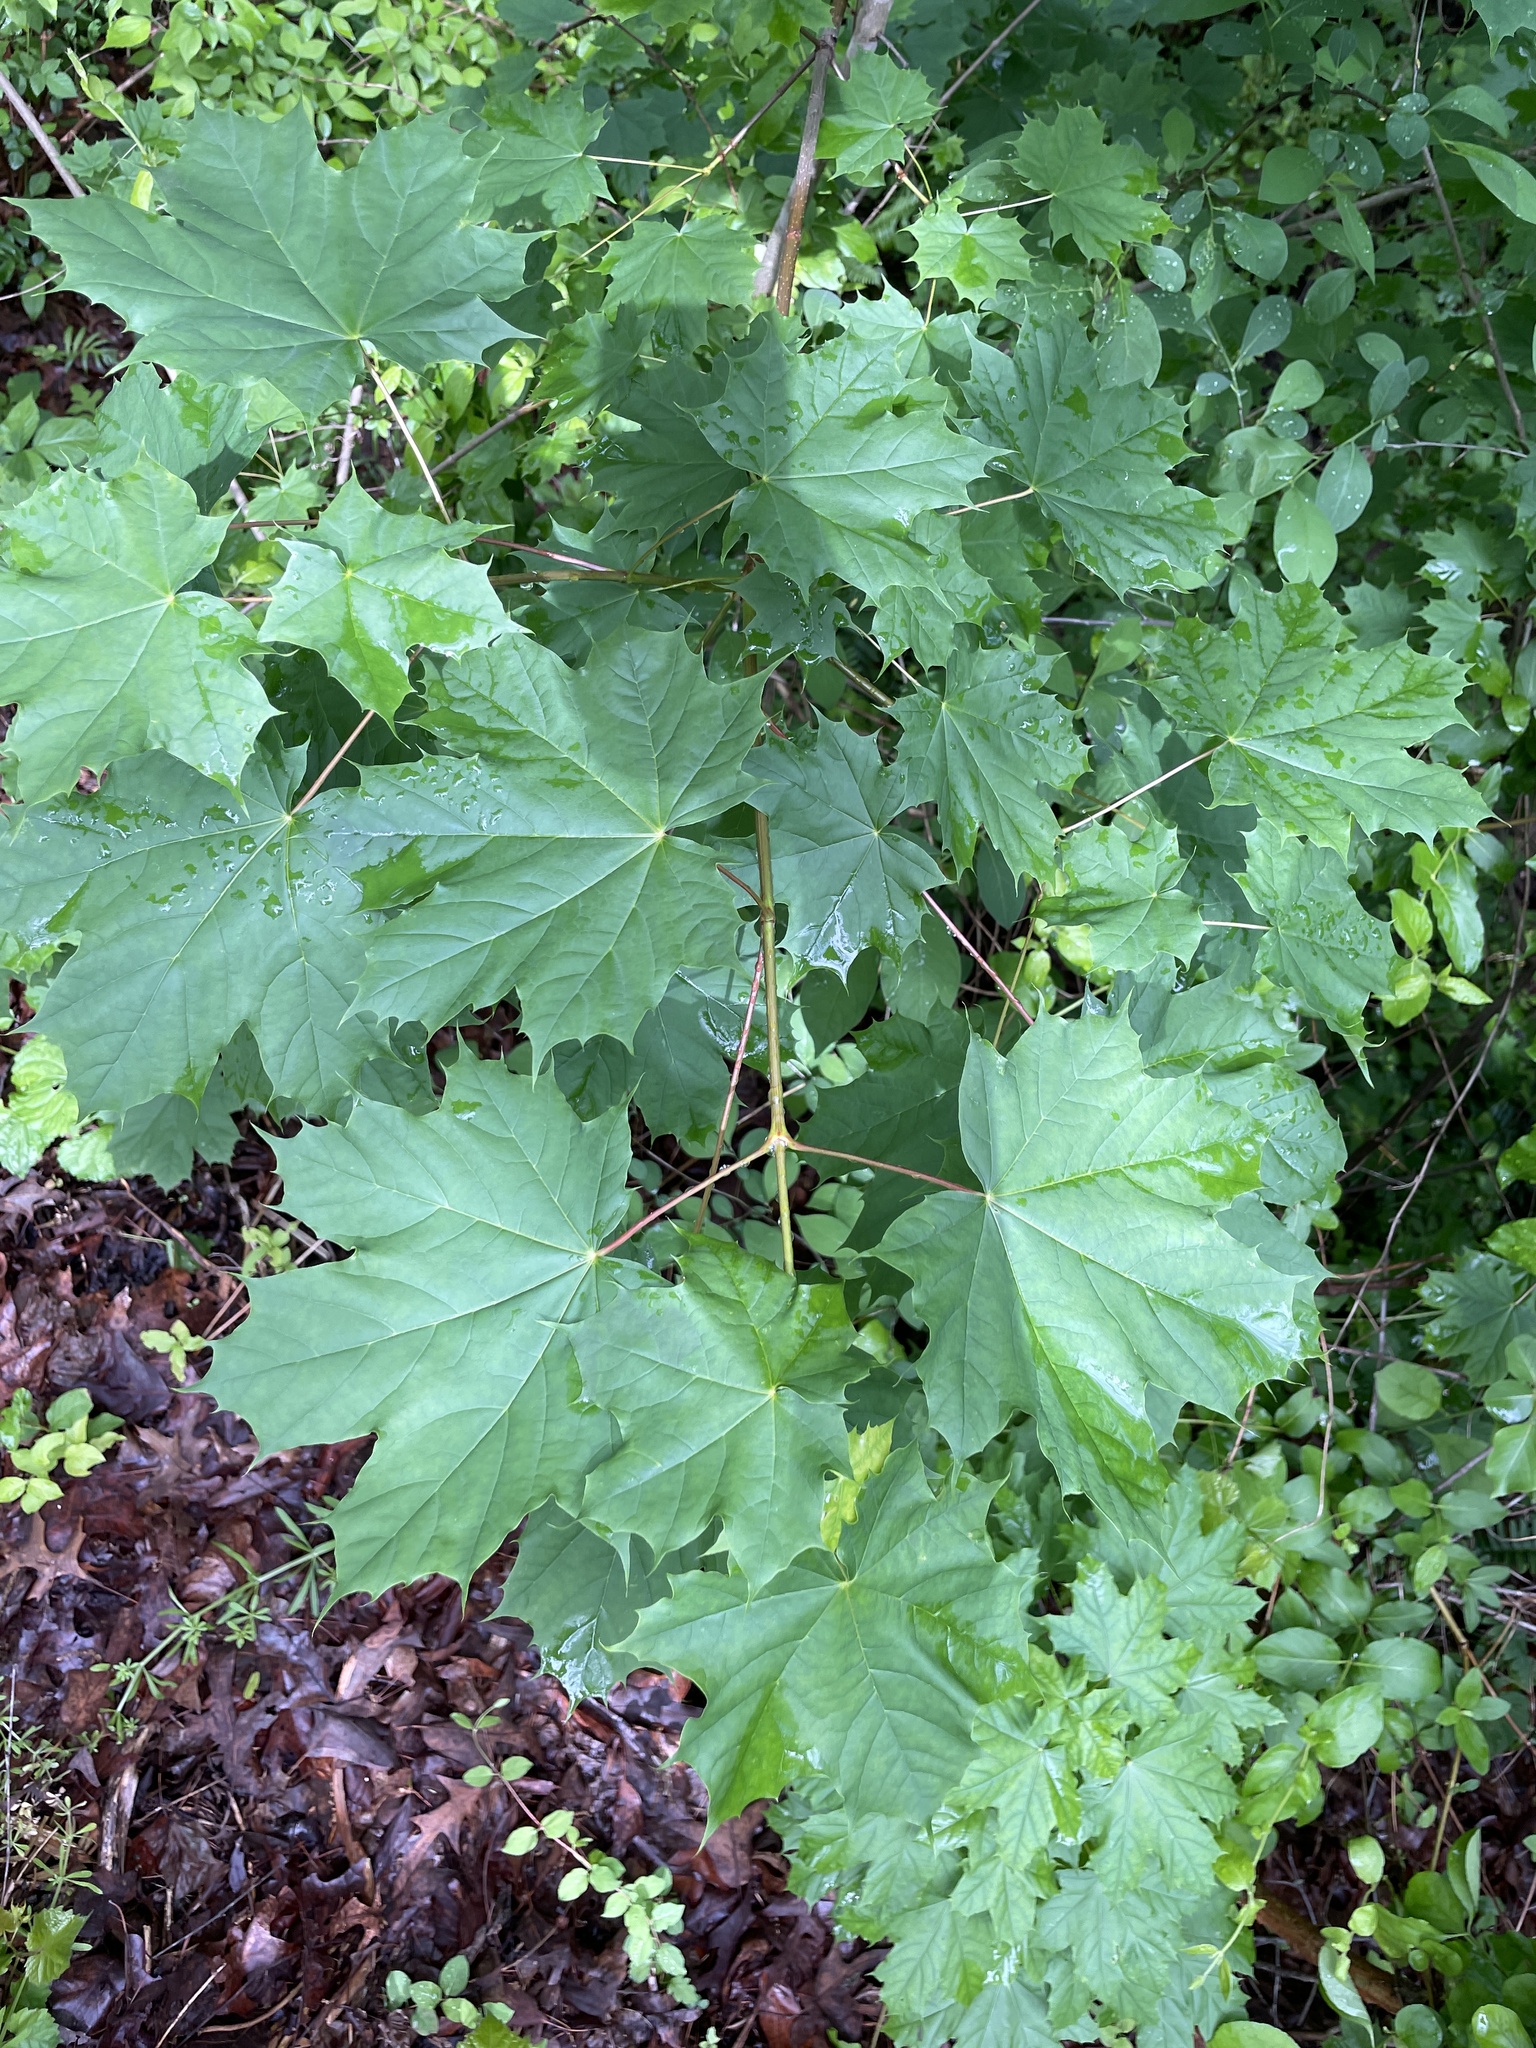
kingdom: Plantae
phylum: Tracheophyta
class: Magnoliopsida
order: Sapindales
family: Sapindaceae
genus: Acer
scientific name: Acer platanoides
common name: Norway maple
